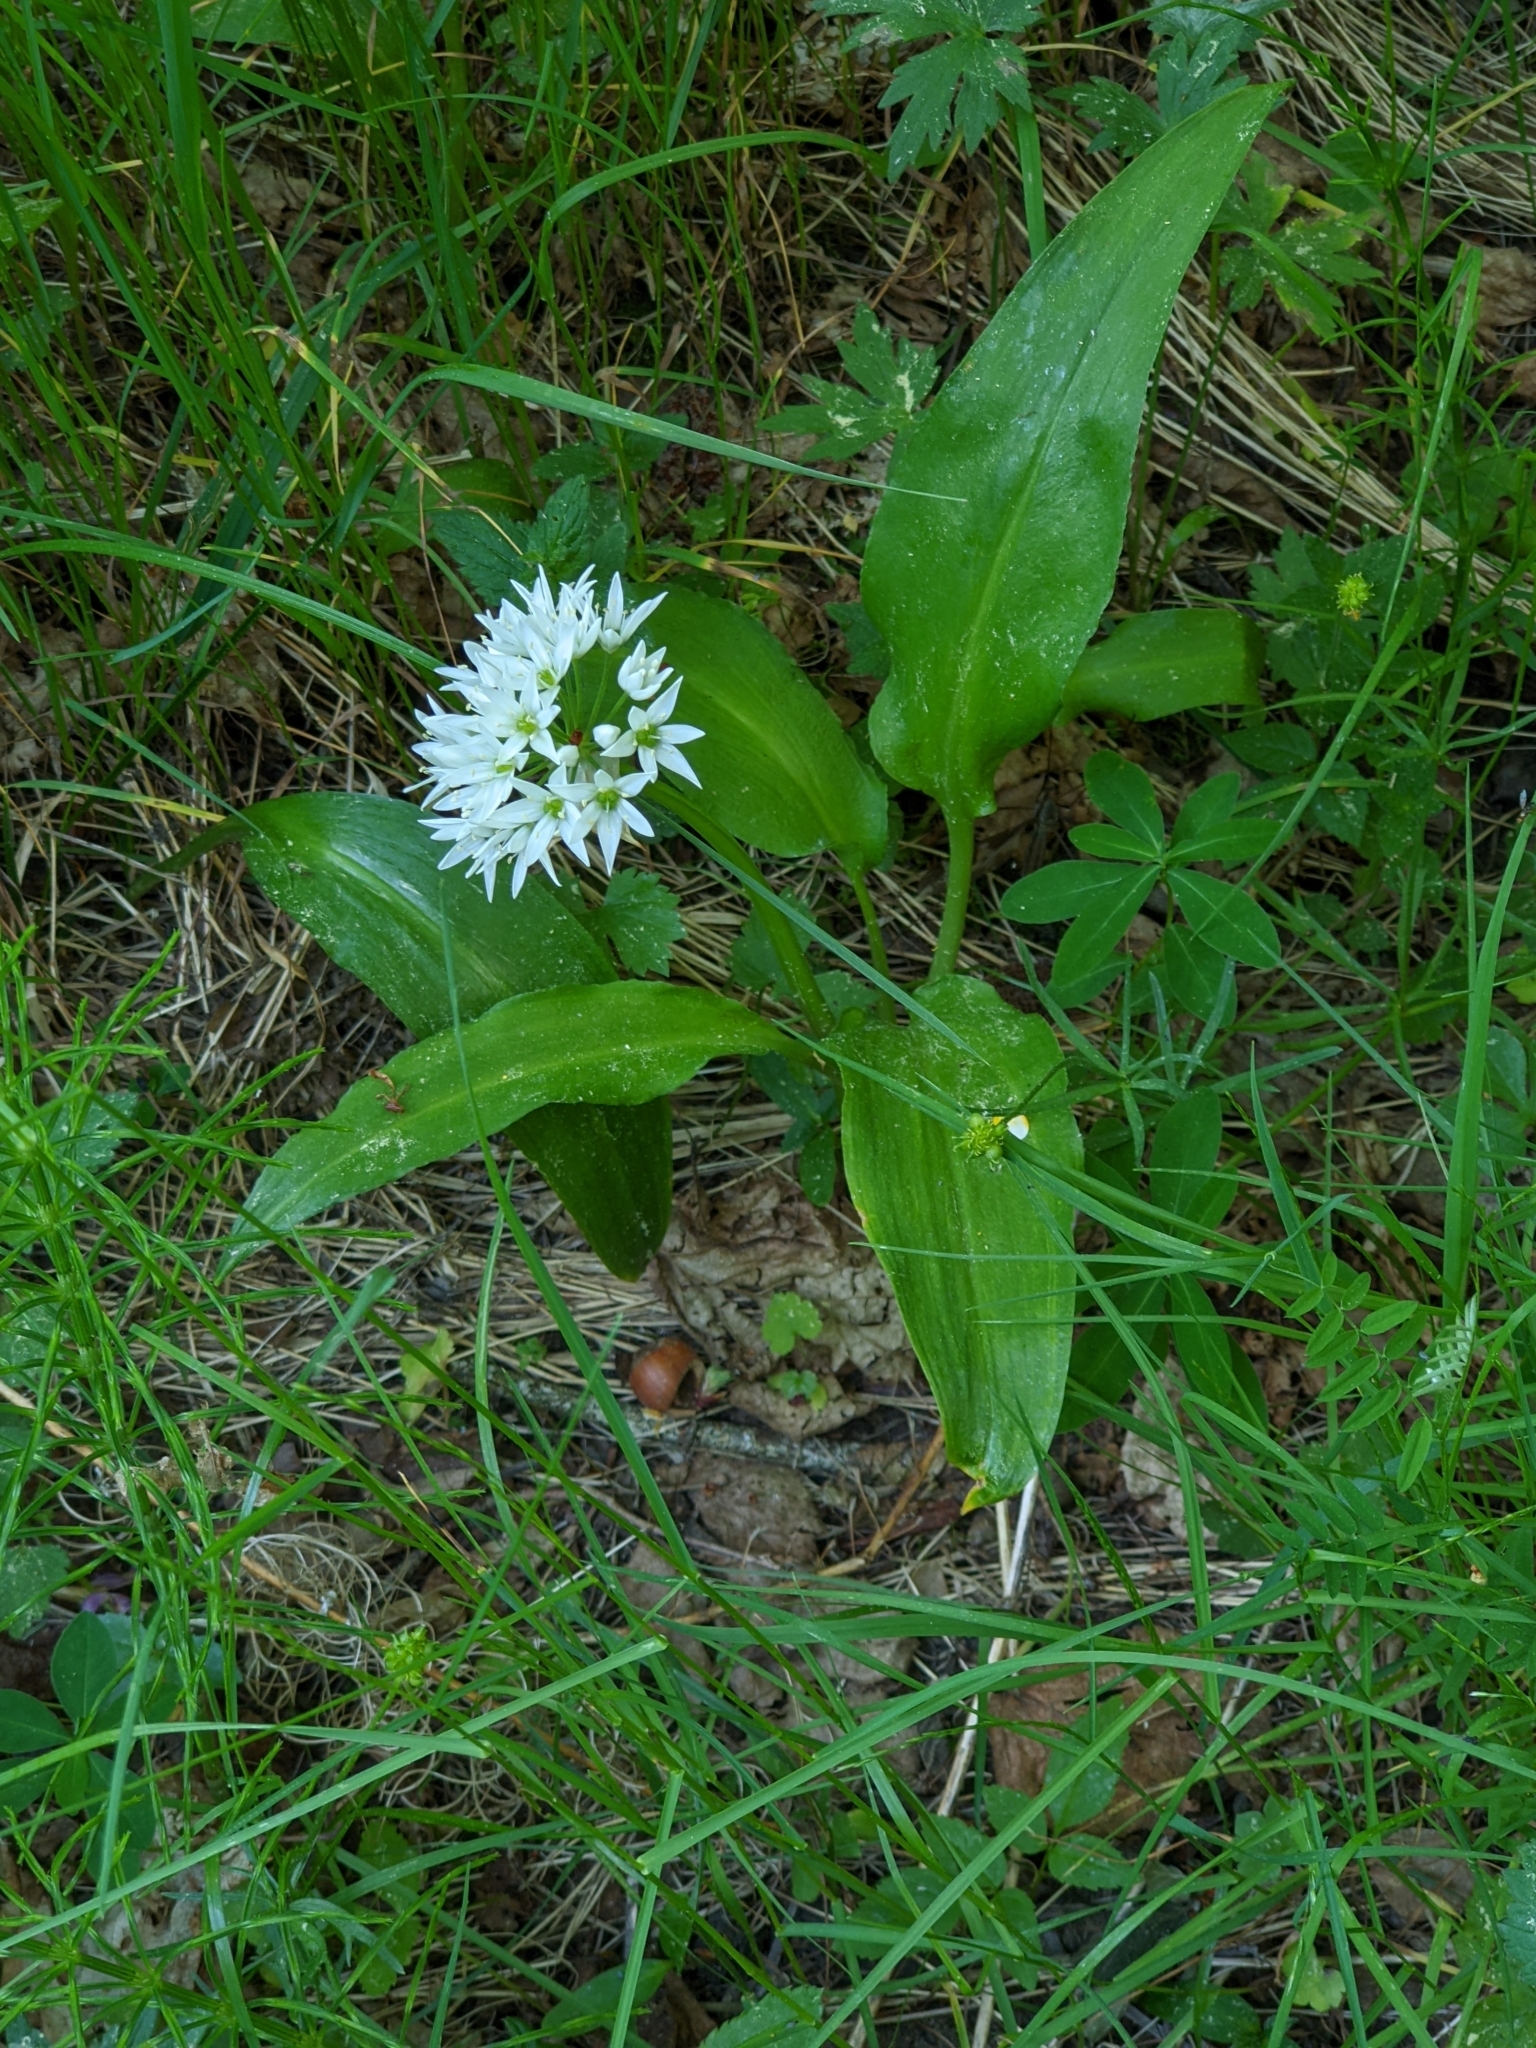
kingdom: Plantae
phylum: Tracheophyta
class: Liliopsida
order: Asparagales
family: Amaryllidaceae
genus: Allium
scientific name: Allium ursinum
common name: Ramsons
